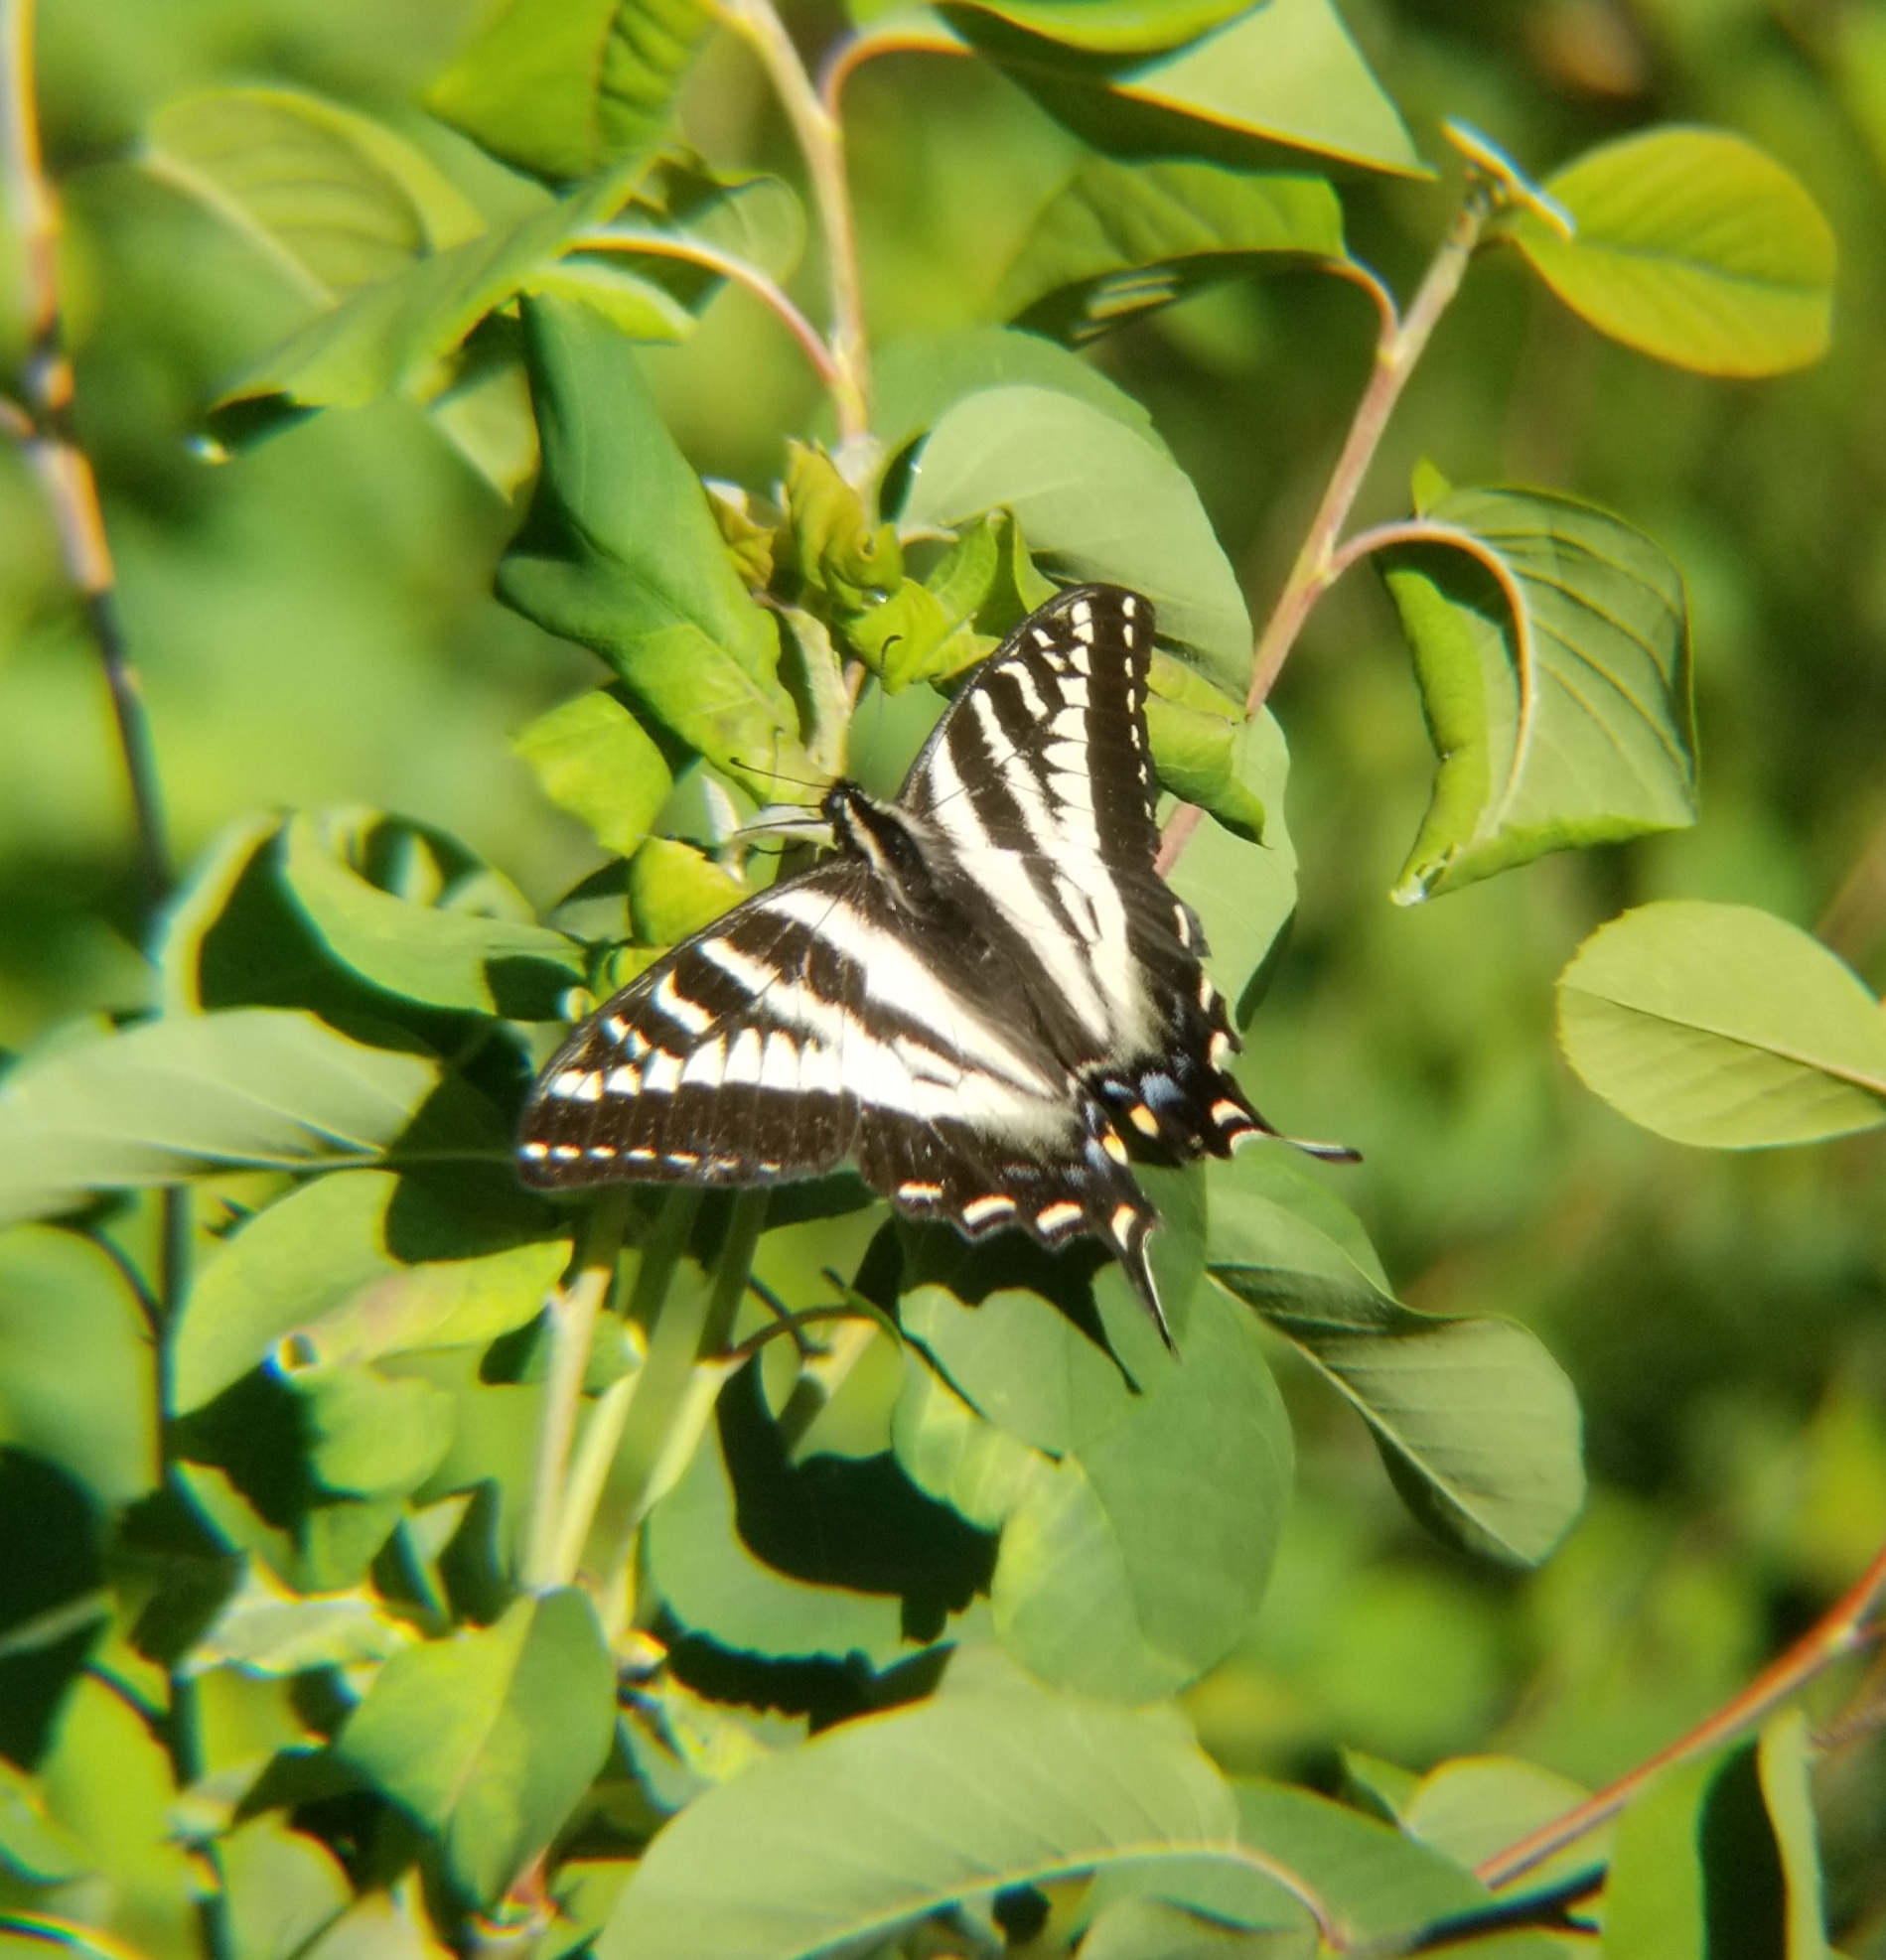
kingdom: Animalia
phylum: Arthropoda
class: Insecta
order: Lepidoptera
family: Papilionidae
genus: Papilio
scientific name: Papilio eurymedon
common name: Pale tiger swallowtail
